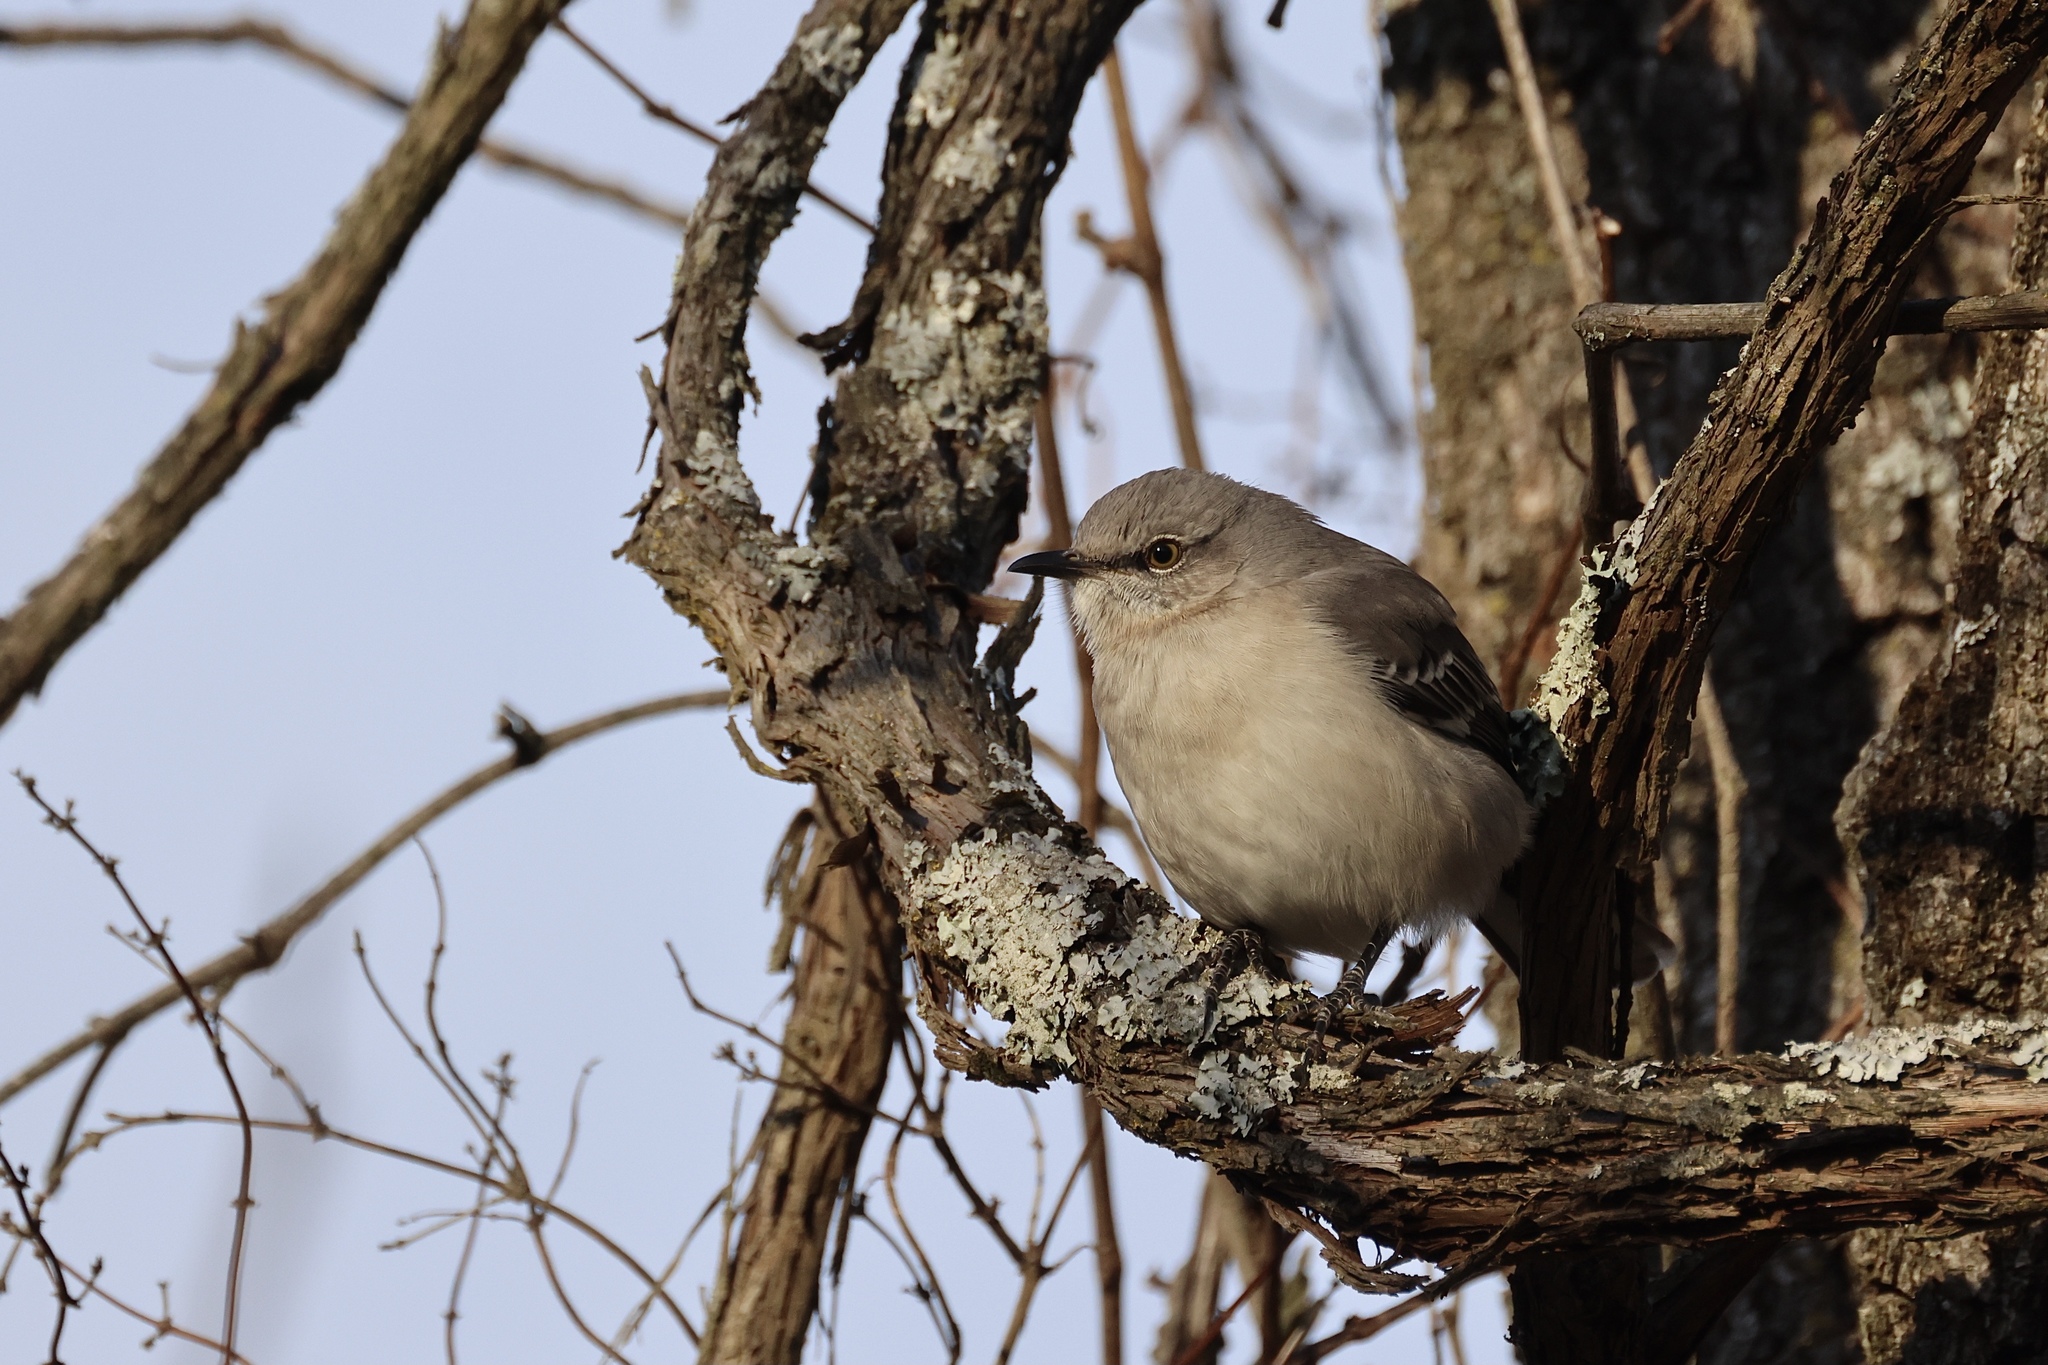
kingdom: Animalia
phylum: Chordata
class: Aves
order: Passeriformes
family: Mimidae
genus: Mimus
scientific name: Mimus polyglottos
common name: Northern mockingbird
